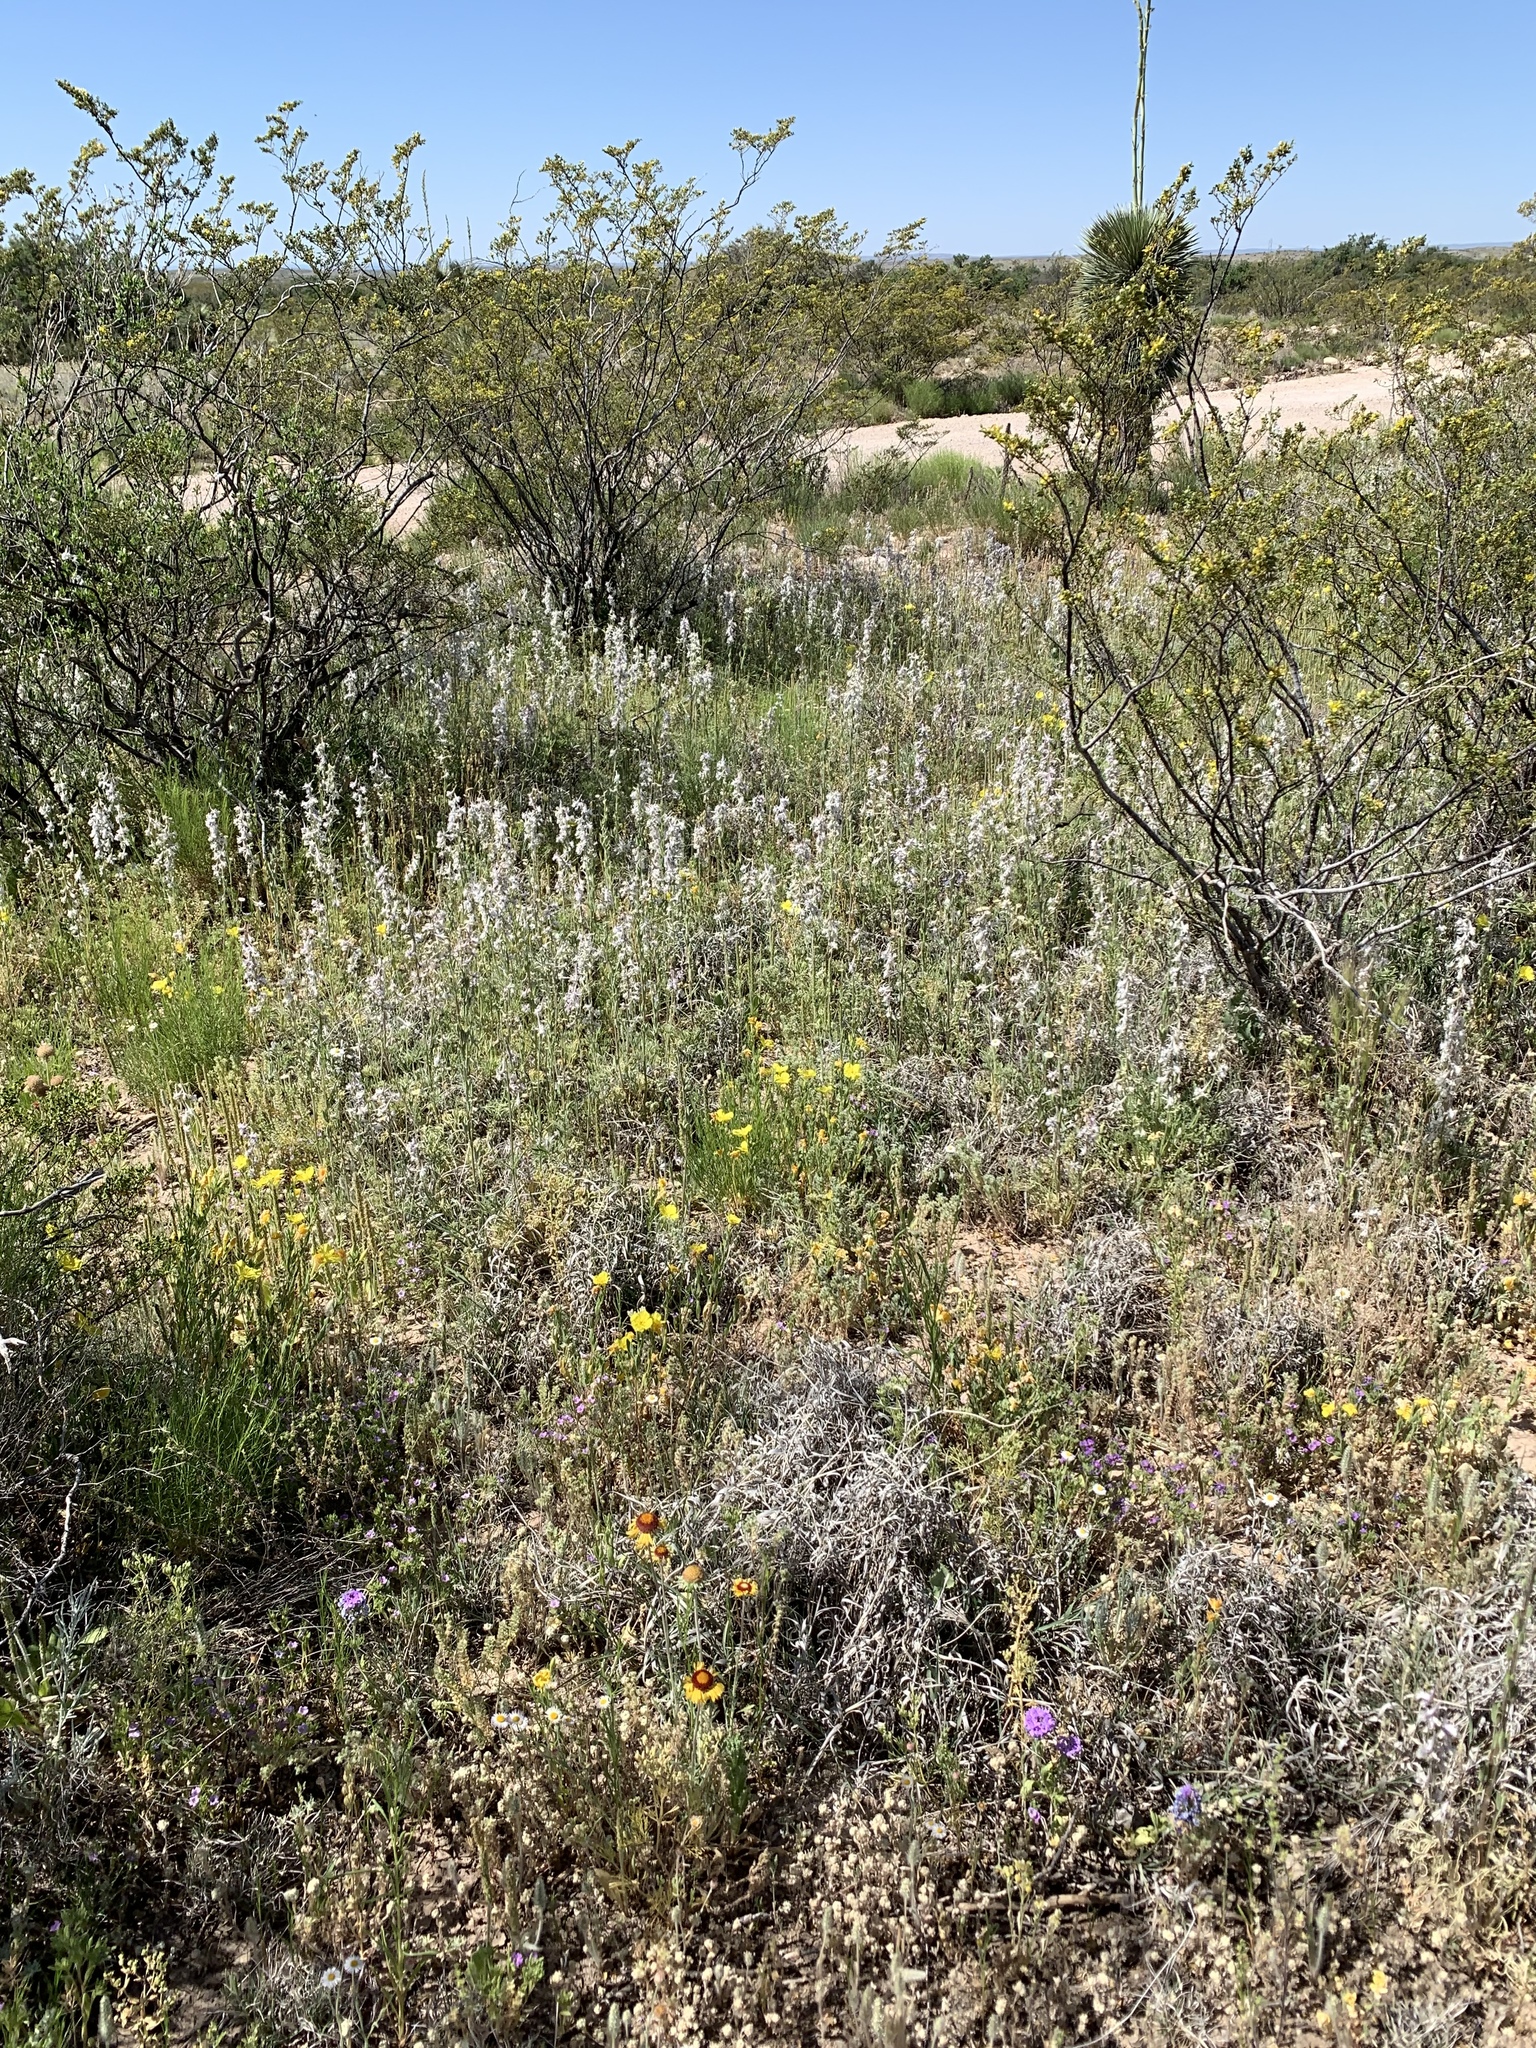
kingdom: Plantae
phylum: Tracheophyta
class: Magnoliopsida
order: Ranunculales
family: Ranunculaceae
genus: Delphinium
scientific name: Delphinium wootonii
